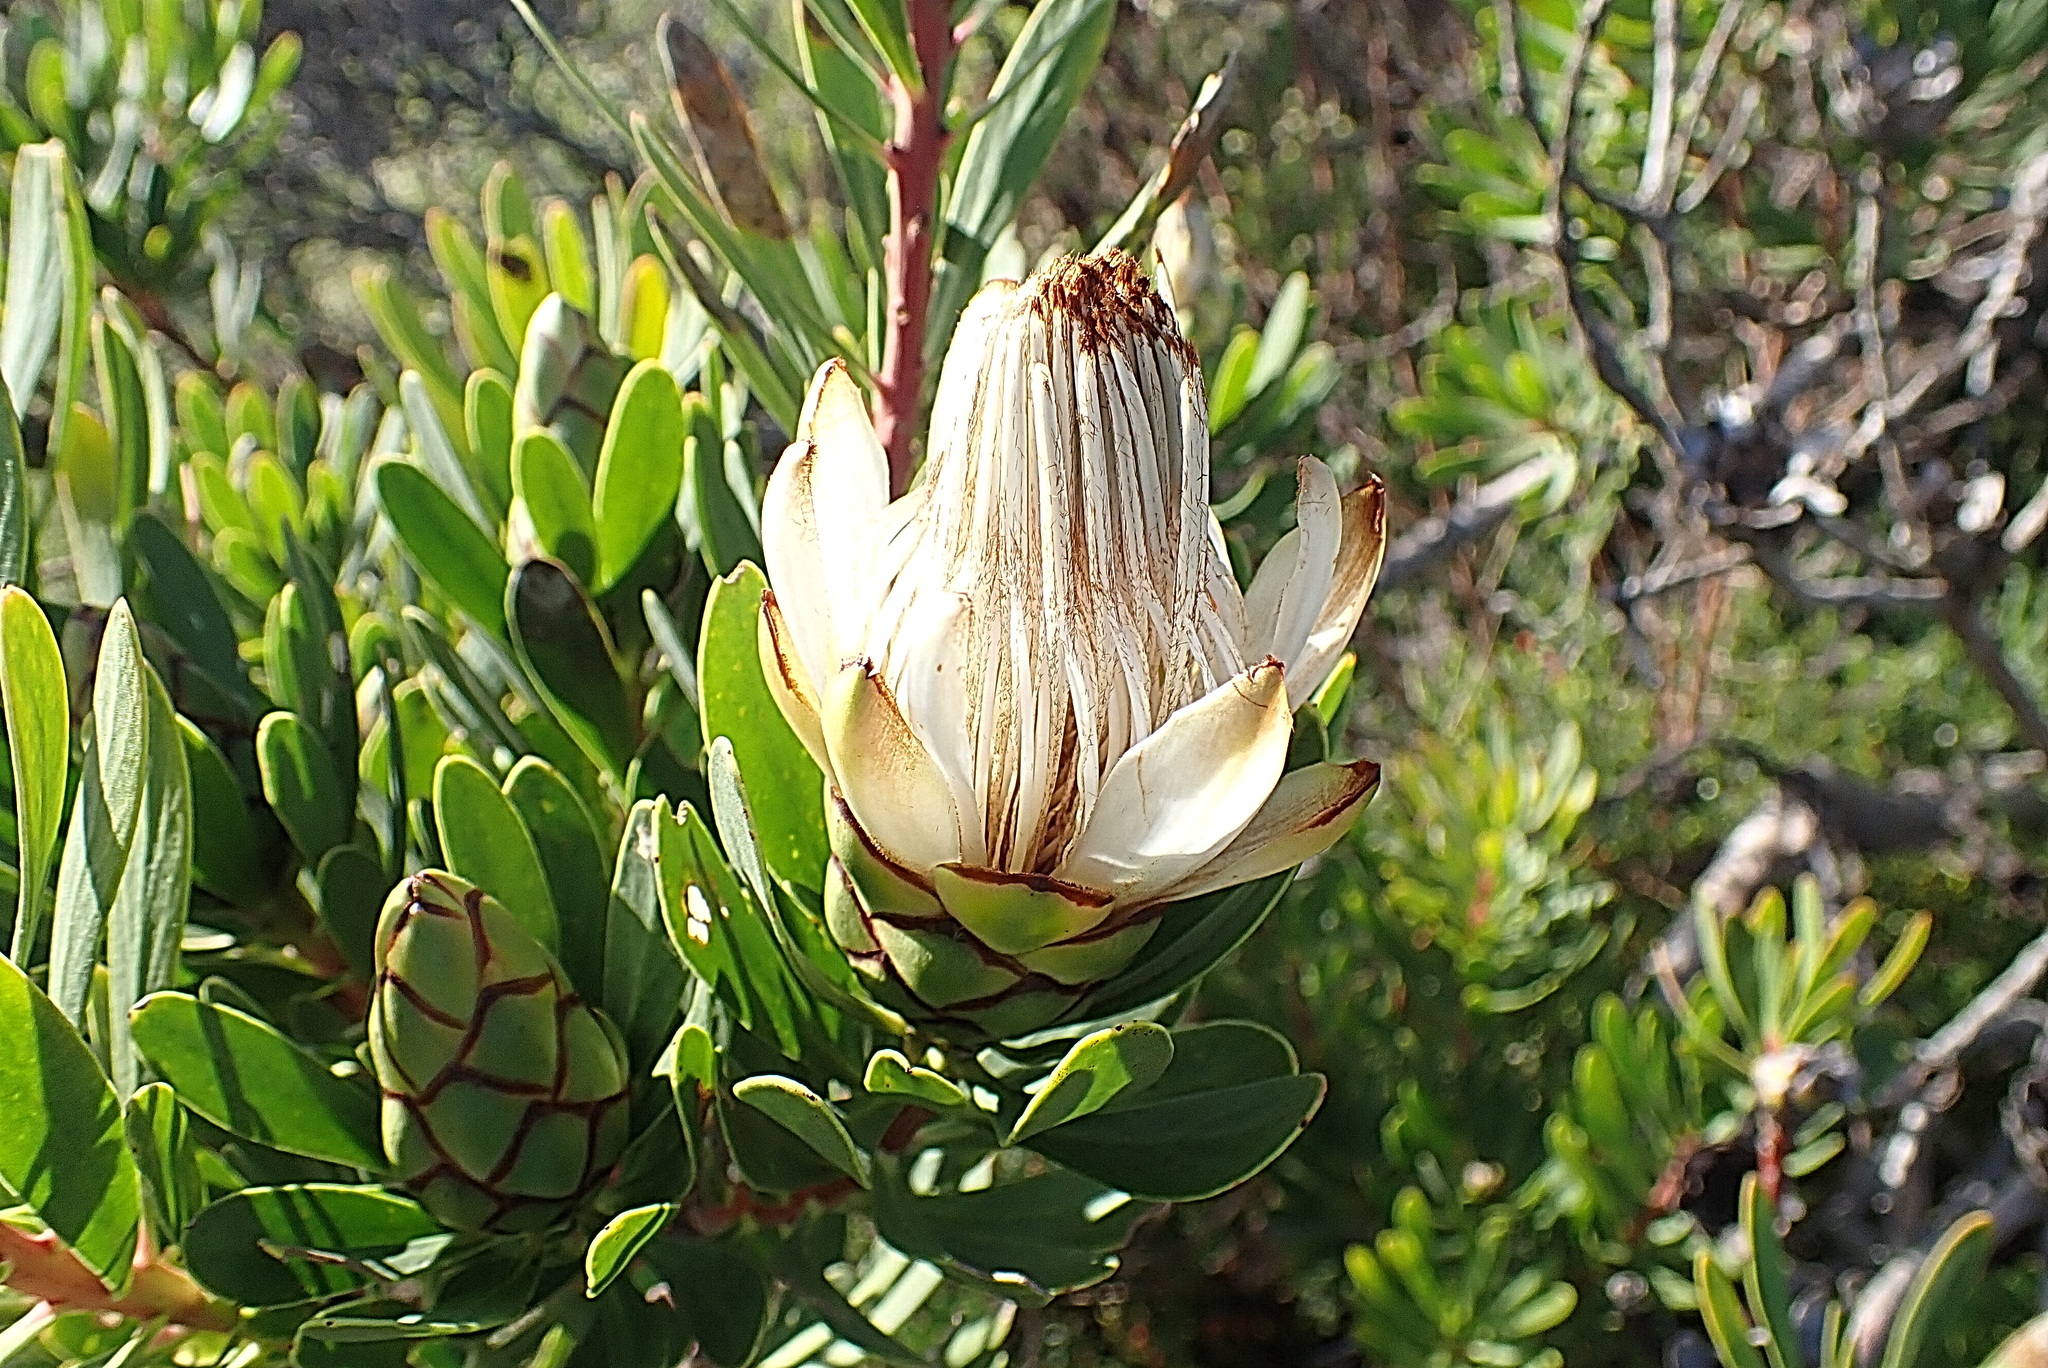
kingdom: Plantae
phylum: Tracheophyta
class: Magnoliopsida
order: Proteales
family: Proteaceae
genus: Protea
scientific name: Protea lanceolata
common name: Lance-leaved protea
